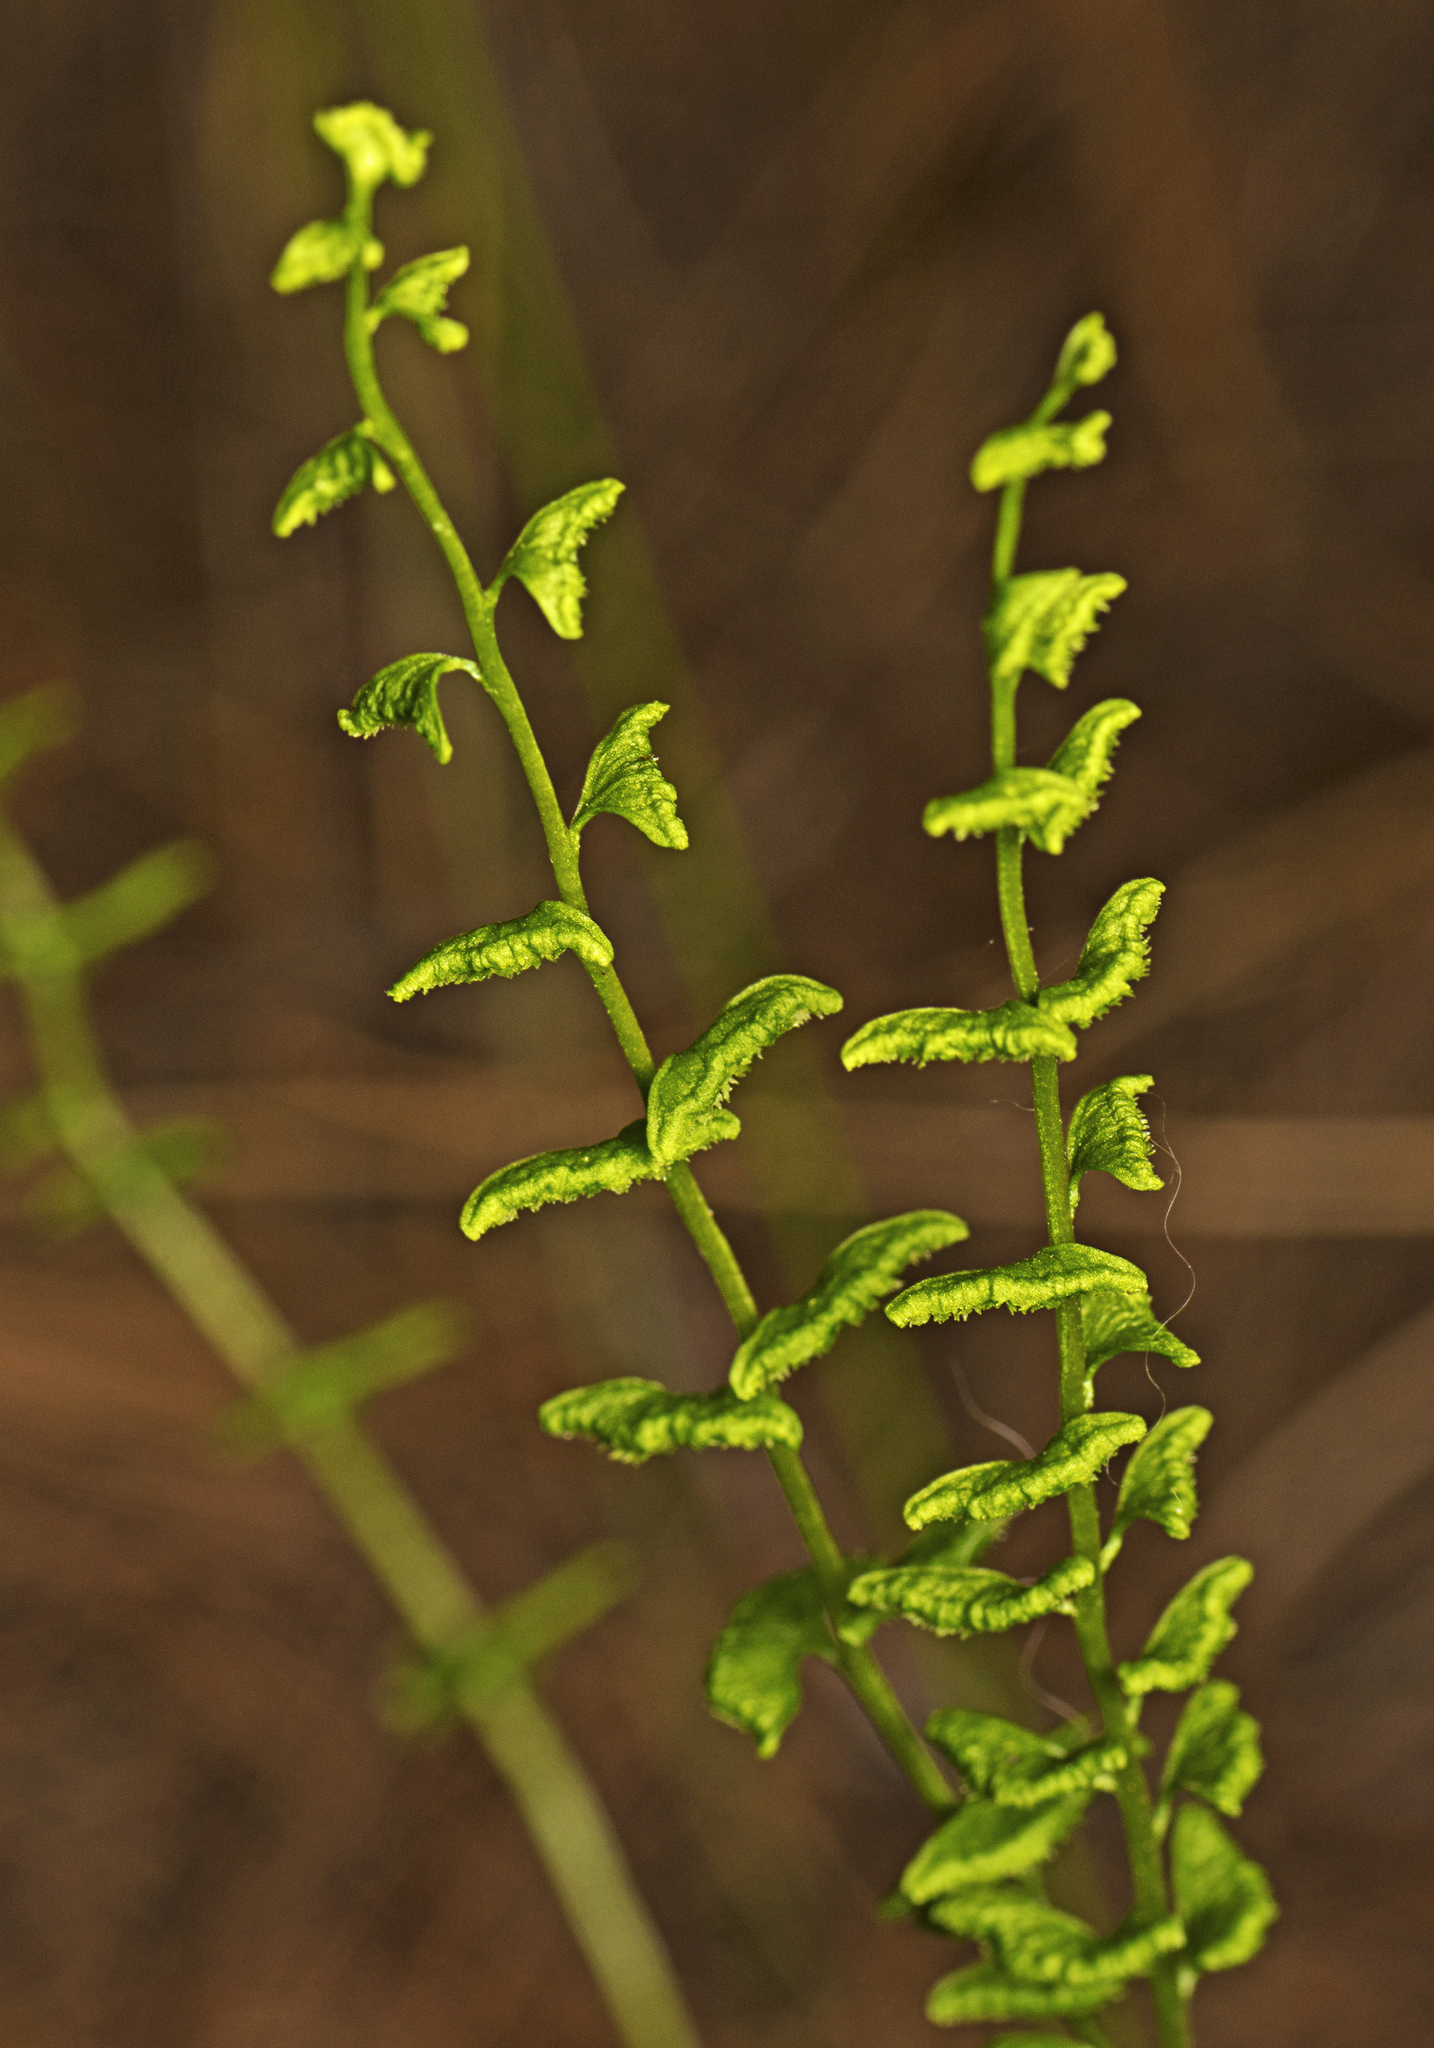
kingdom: Plantae
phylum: Tracheophyta
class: Polypodiopsida
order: Polypodiales
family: Lindsaeaceae
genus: Lindsaea
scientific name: Lindsaea dimorpha
